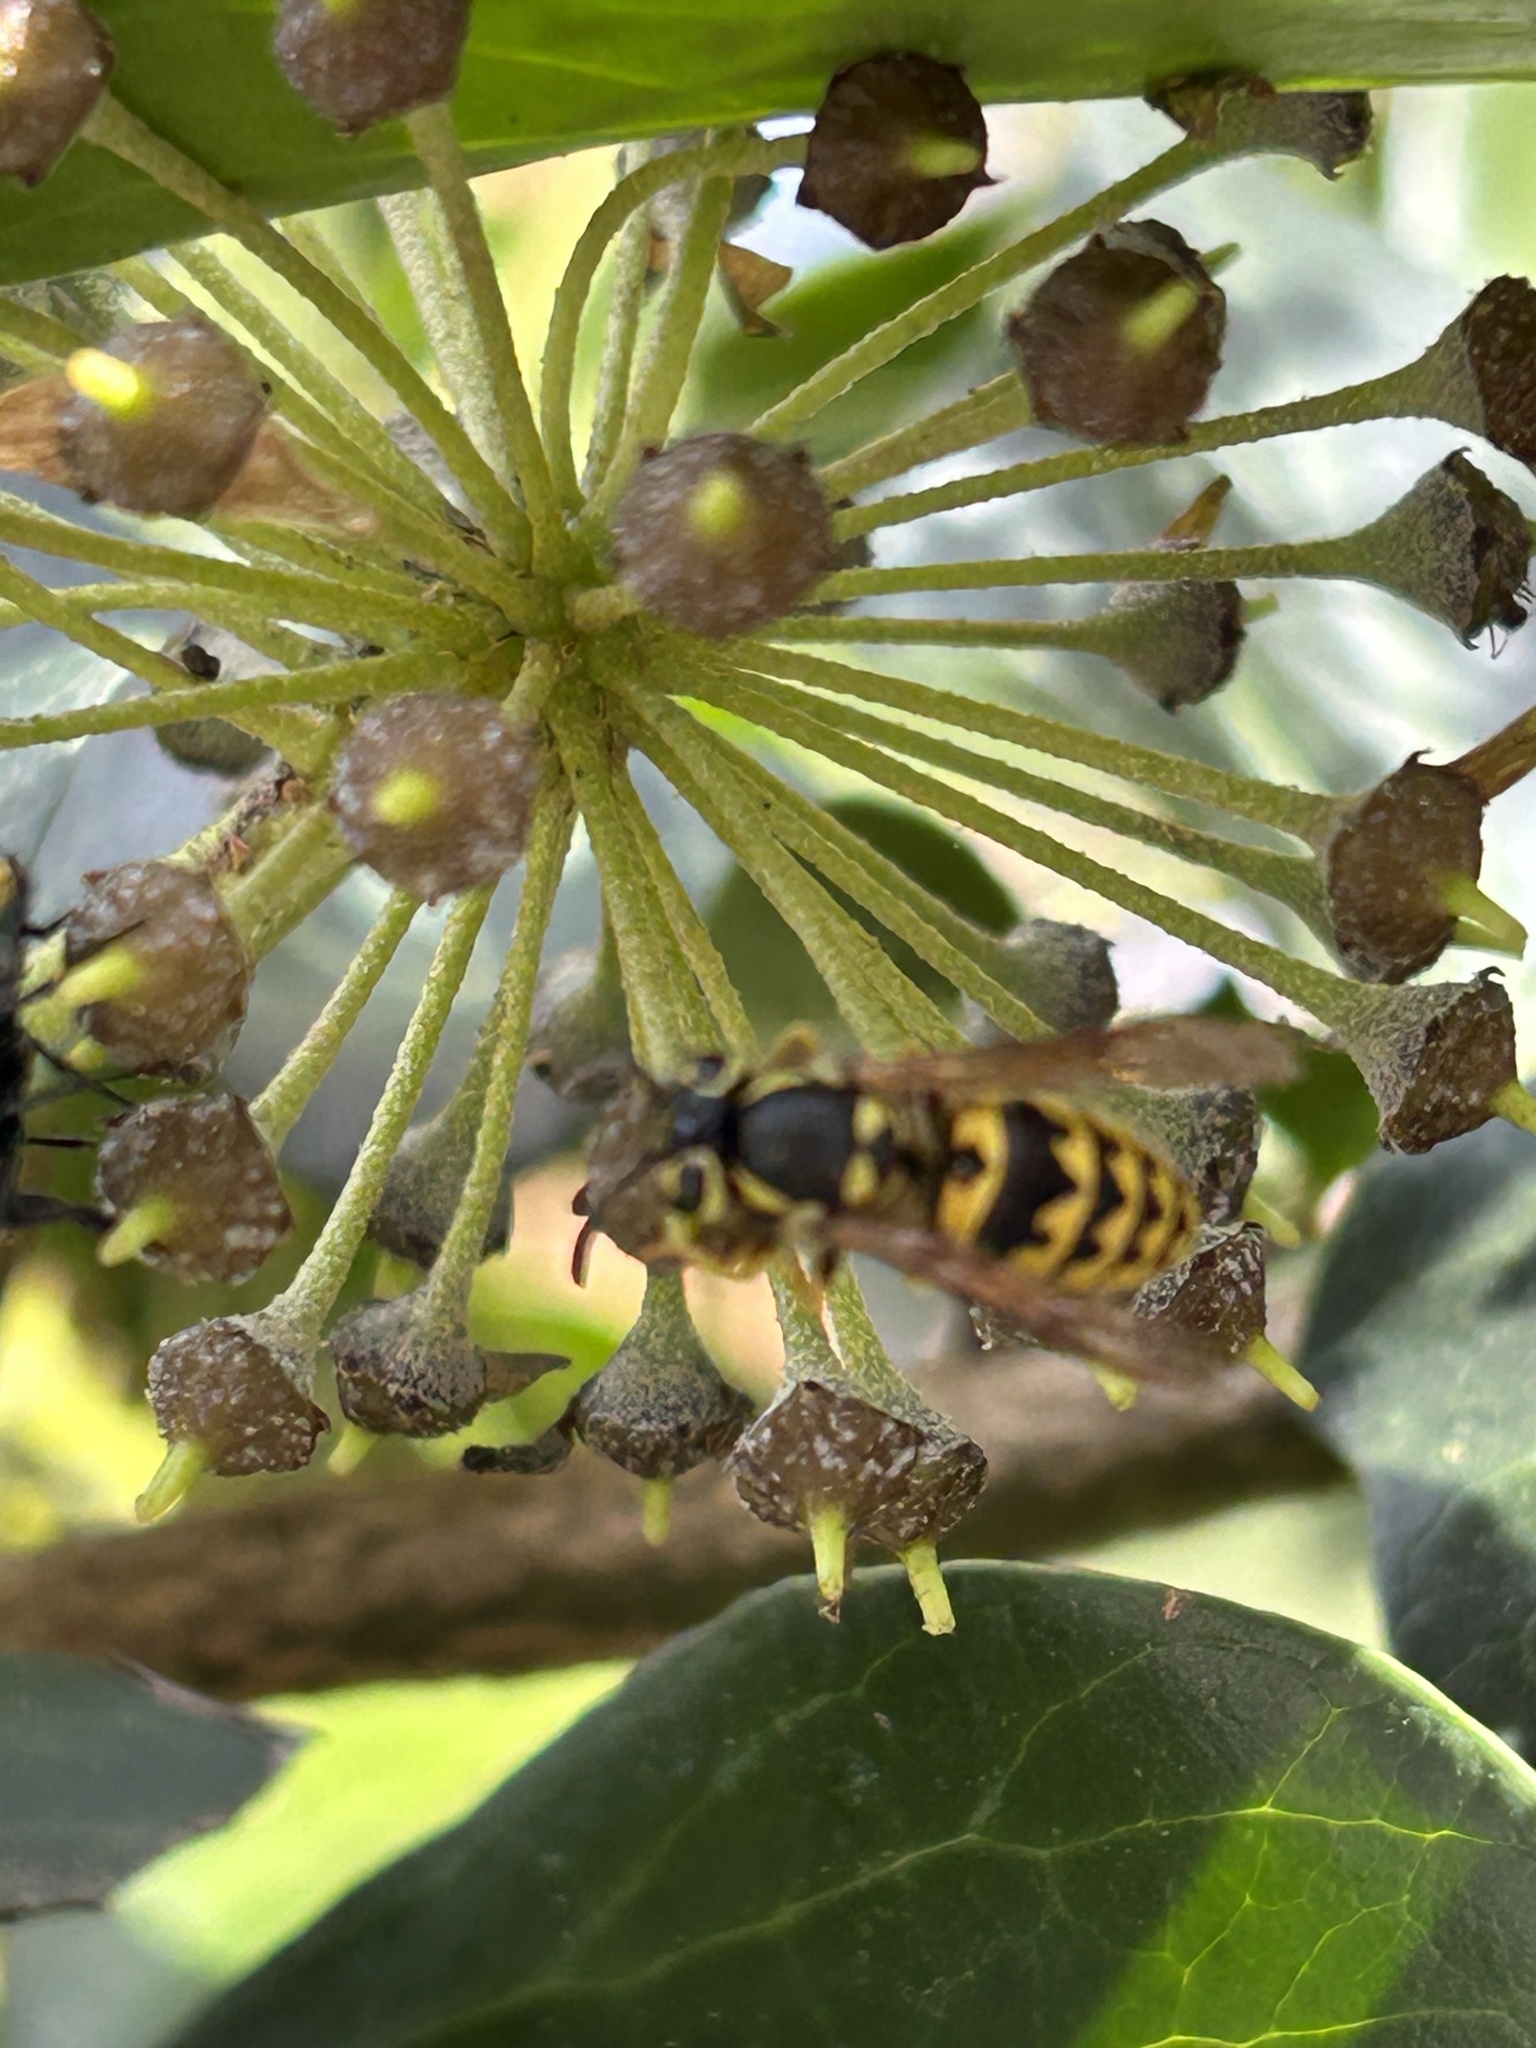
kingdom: Animalia
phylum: Arthropoda
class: Insecta
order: Hymenoptera
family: Vespidae
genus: Vespula
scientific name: Vespula pensylvanica
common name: Western yellowjacket
